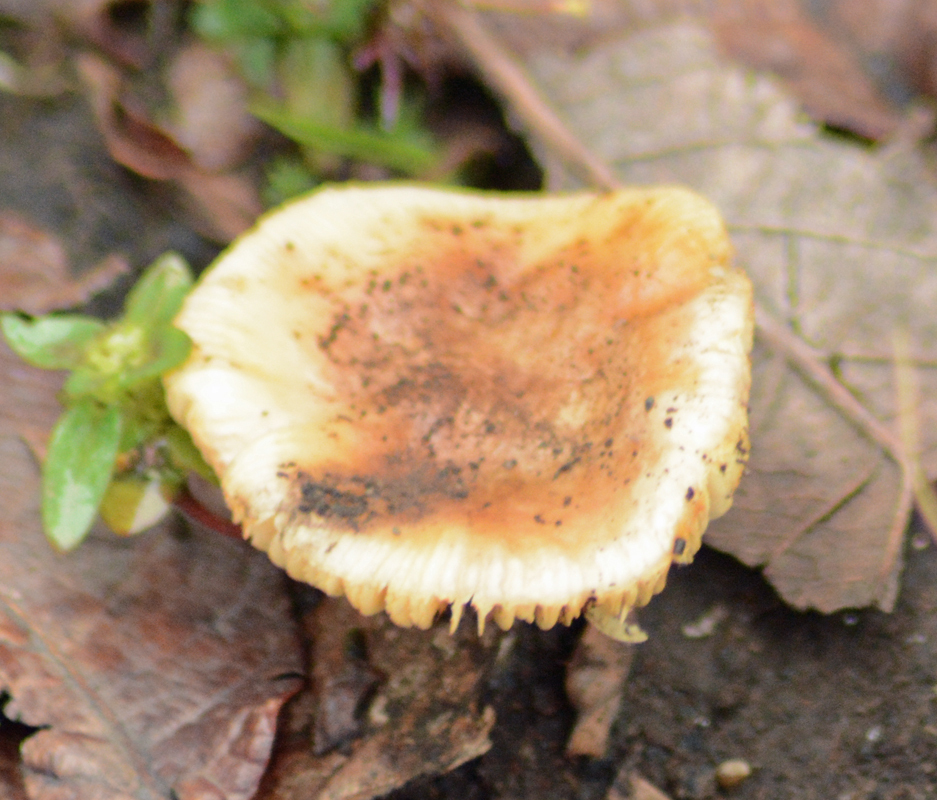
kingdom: Fungi
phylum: Basidiomycota
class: Agaricomycetes
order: Russulales
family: Russulaceae
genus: Russula
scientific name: Russula foetens
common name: Foetid russula
